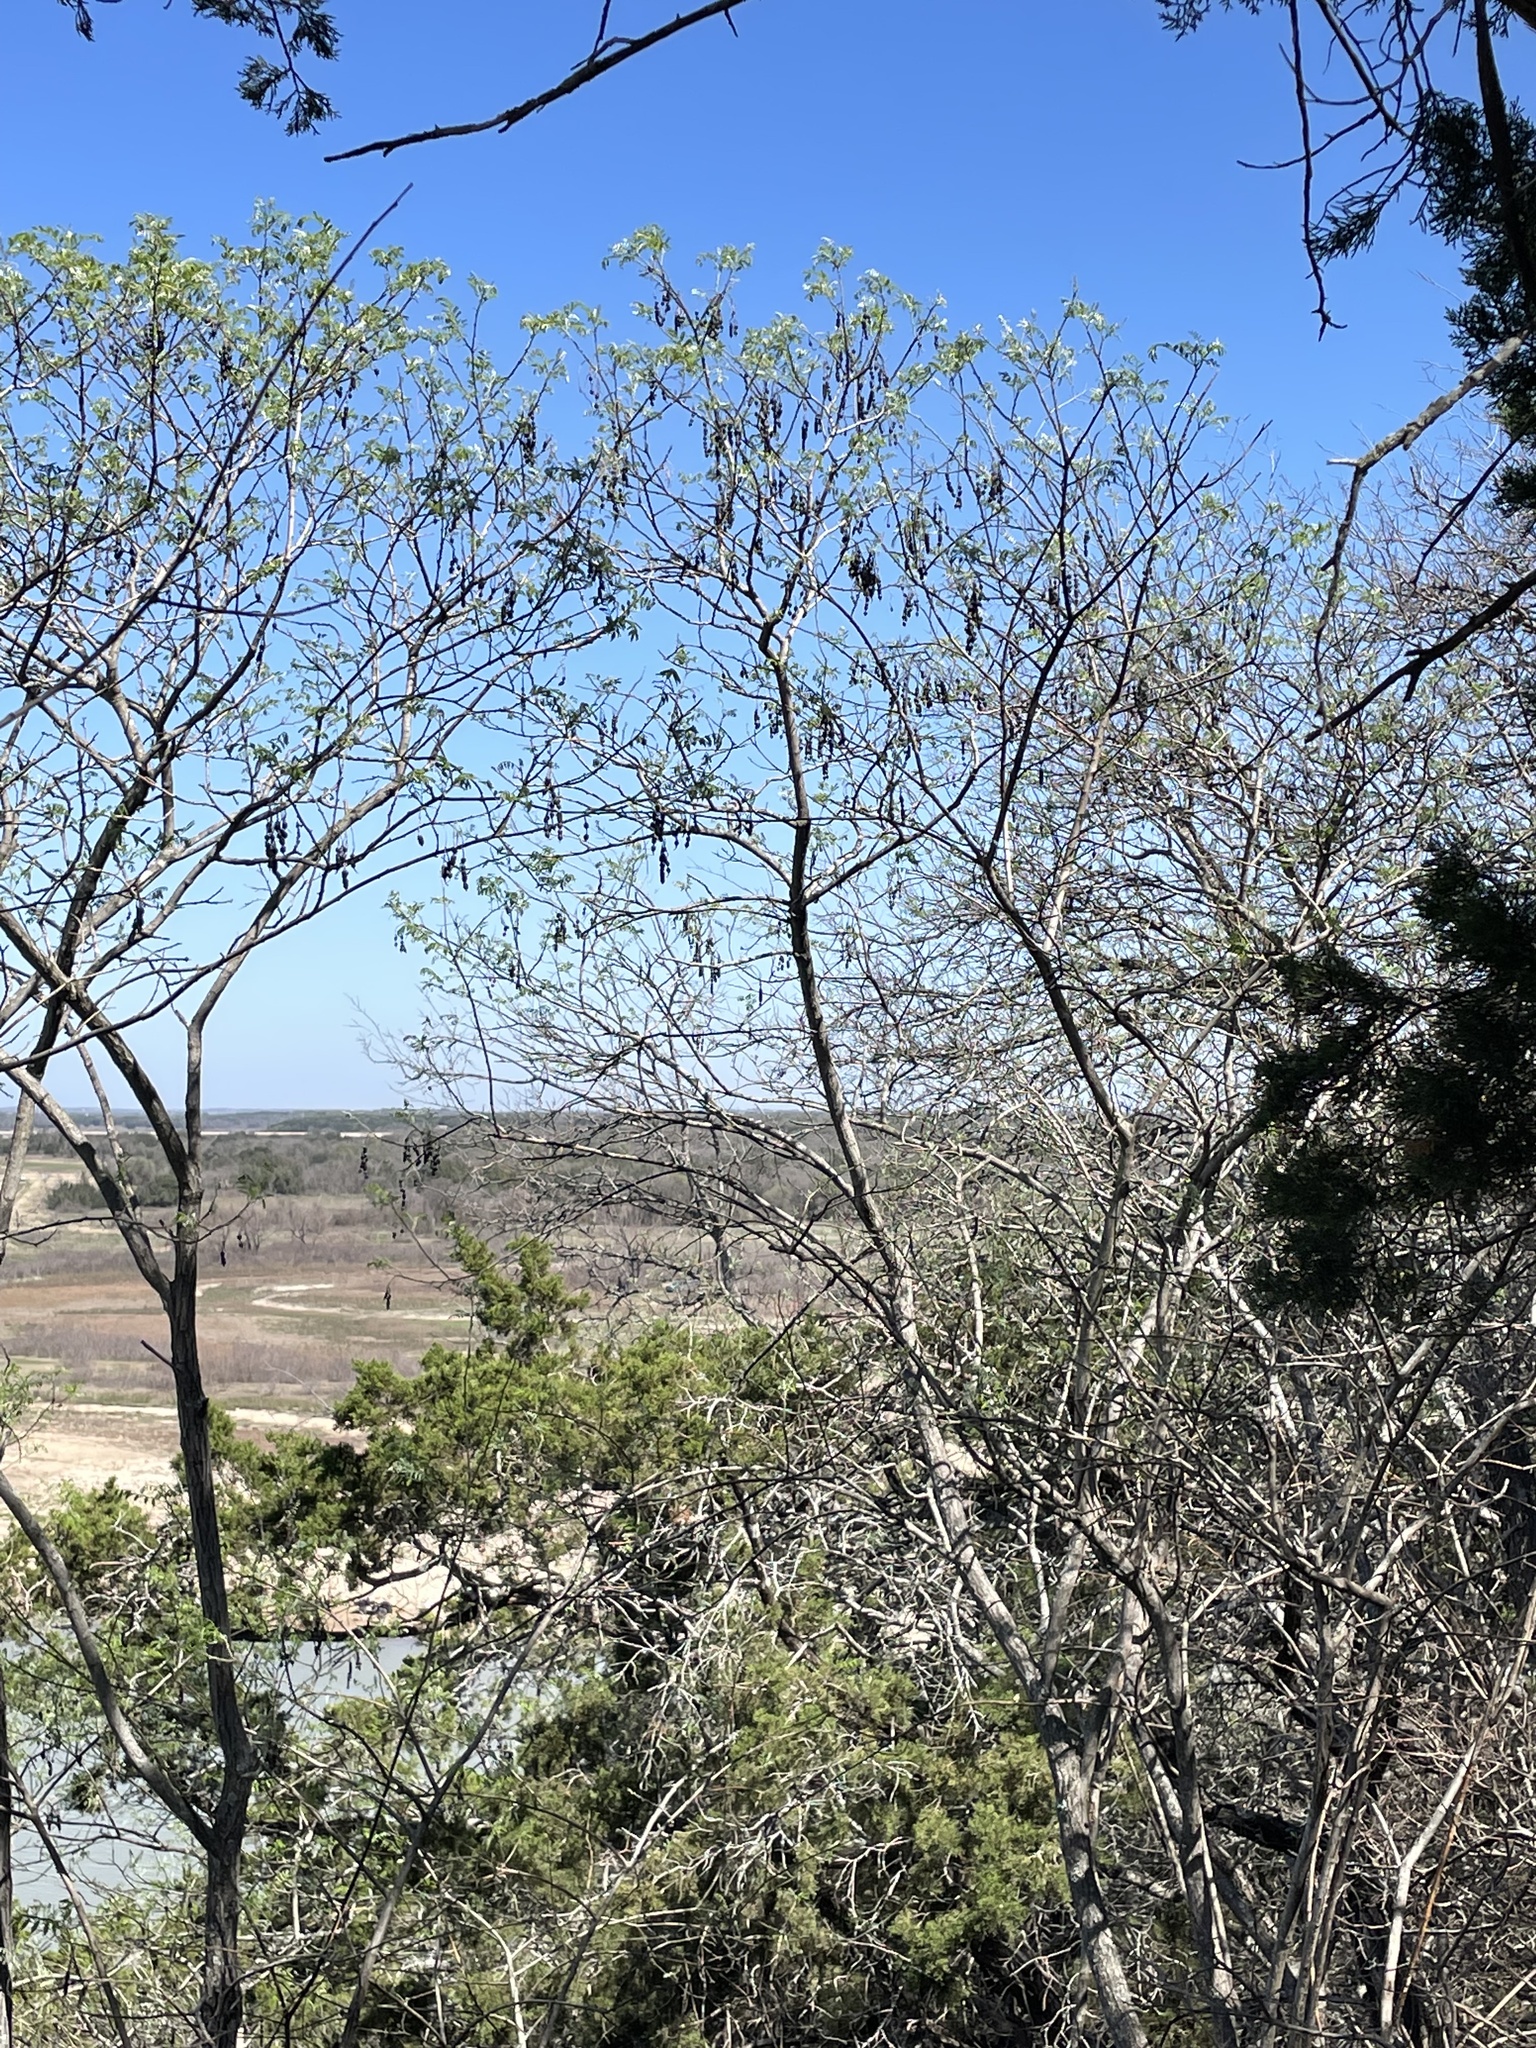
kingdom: Plantae
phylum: Tracheophyta
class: Magnoliopsida
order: Fabales
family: Fabaceae
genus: Styphnolobium
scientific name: Styphnolobium affine
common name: Texas sophora
